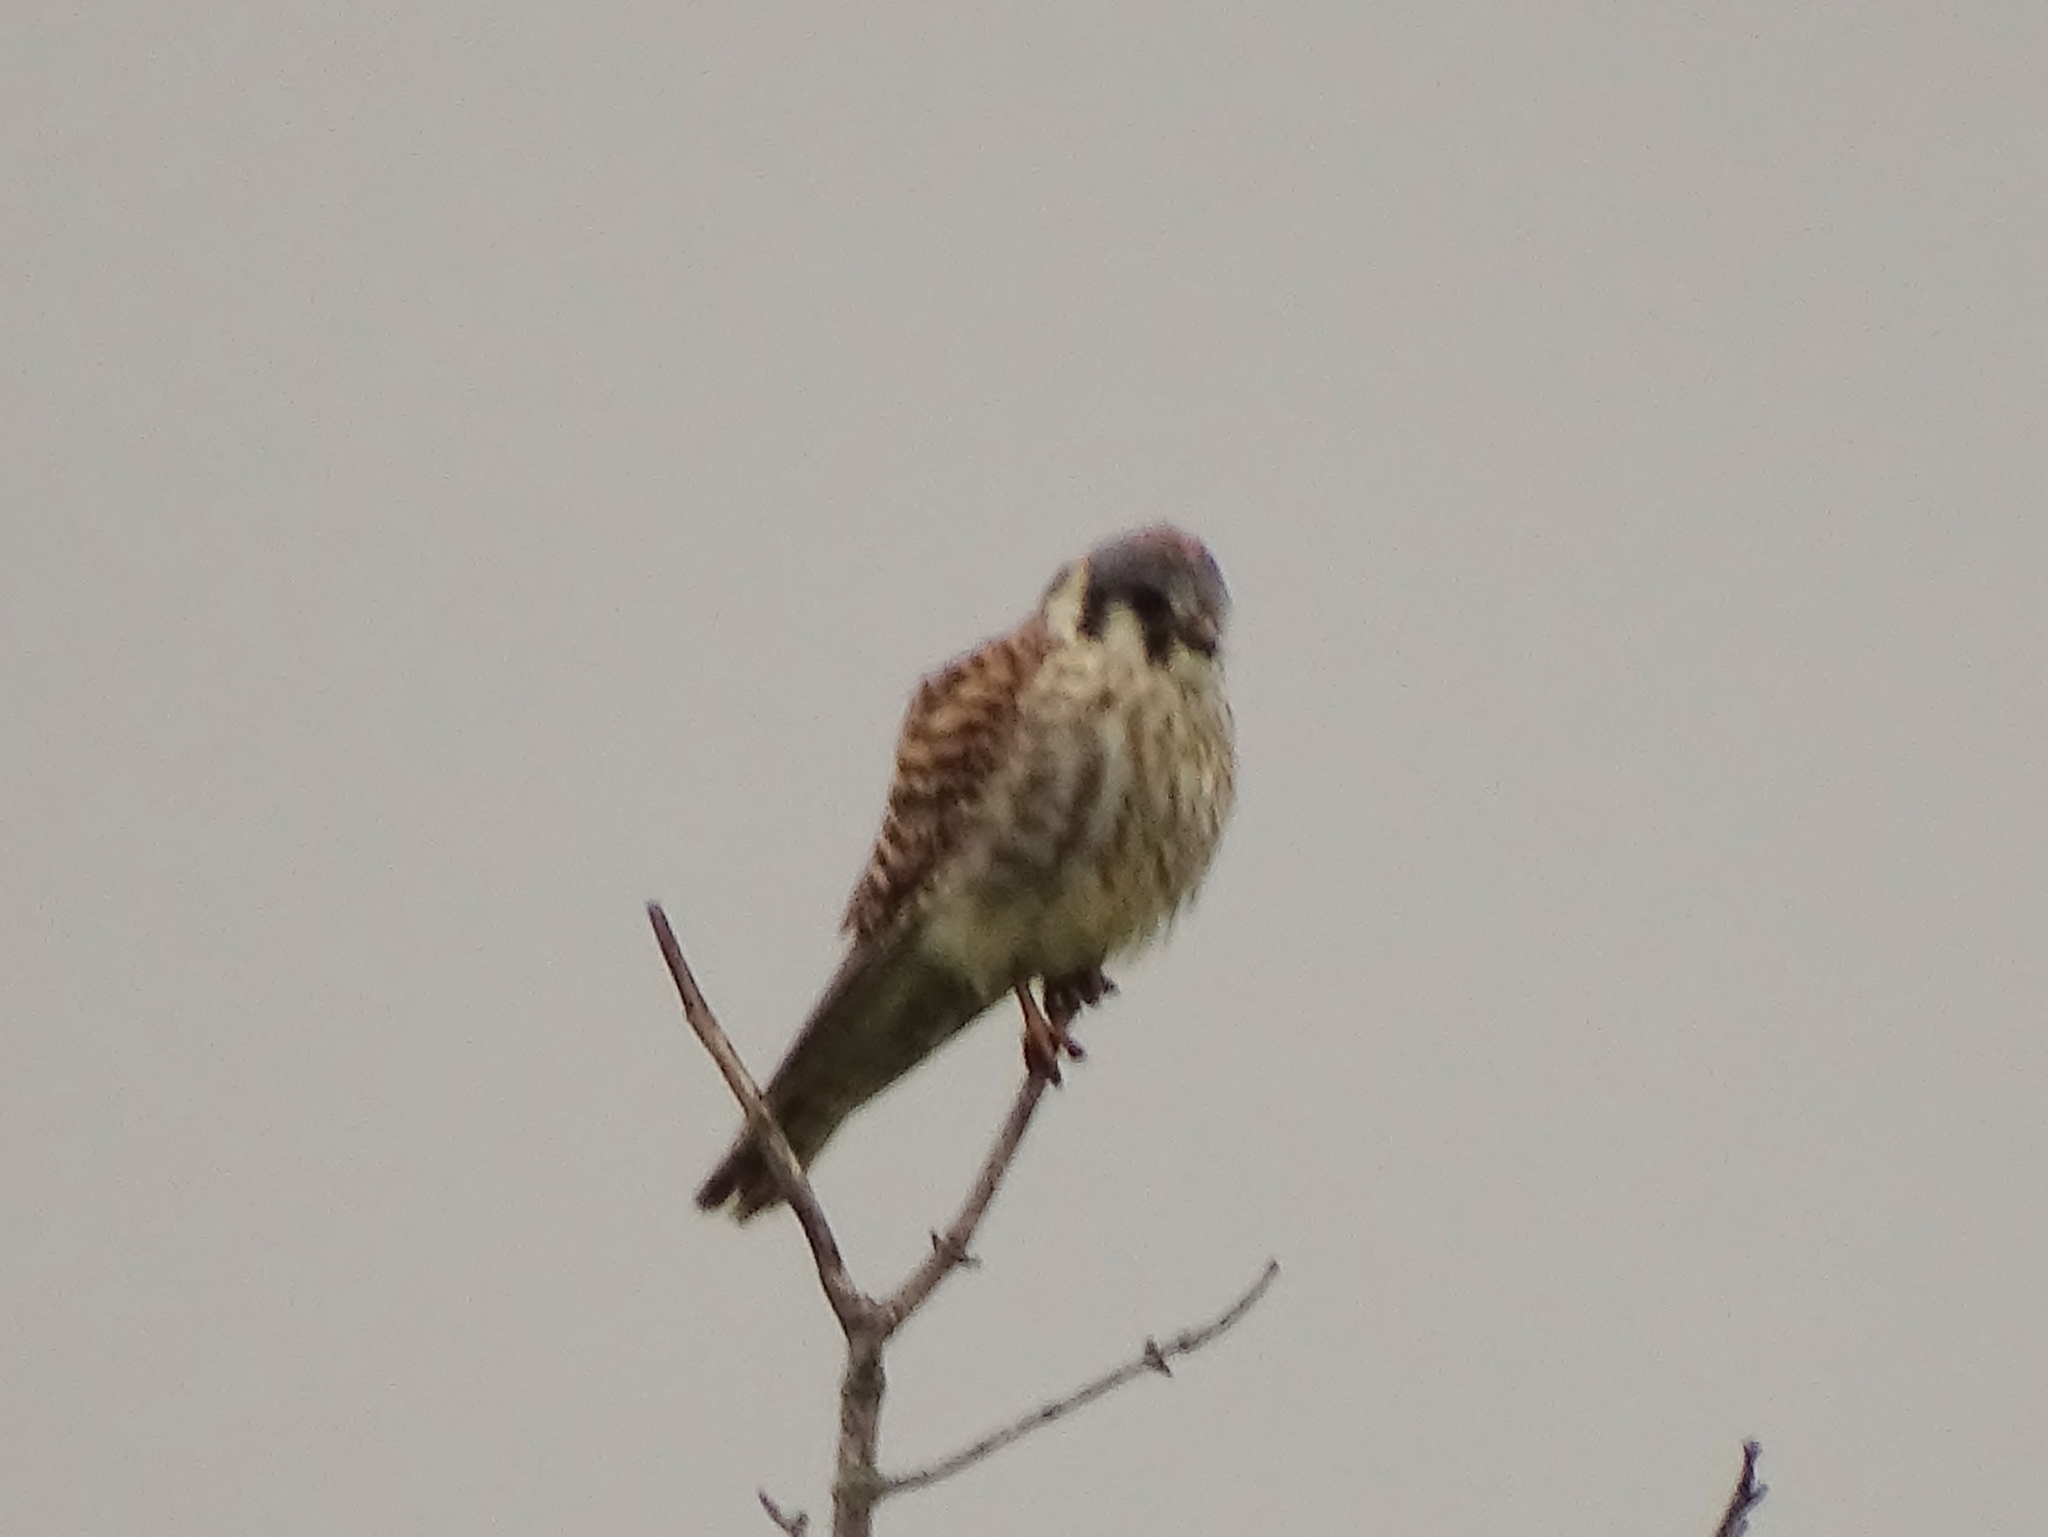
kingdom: Animalia
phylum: Chordata
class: Aves
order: Falconiformes
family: Falconidae
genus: Falco
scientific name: Falco sparverius
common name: American kestrel
